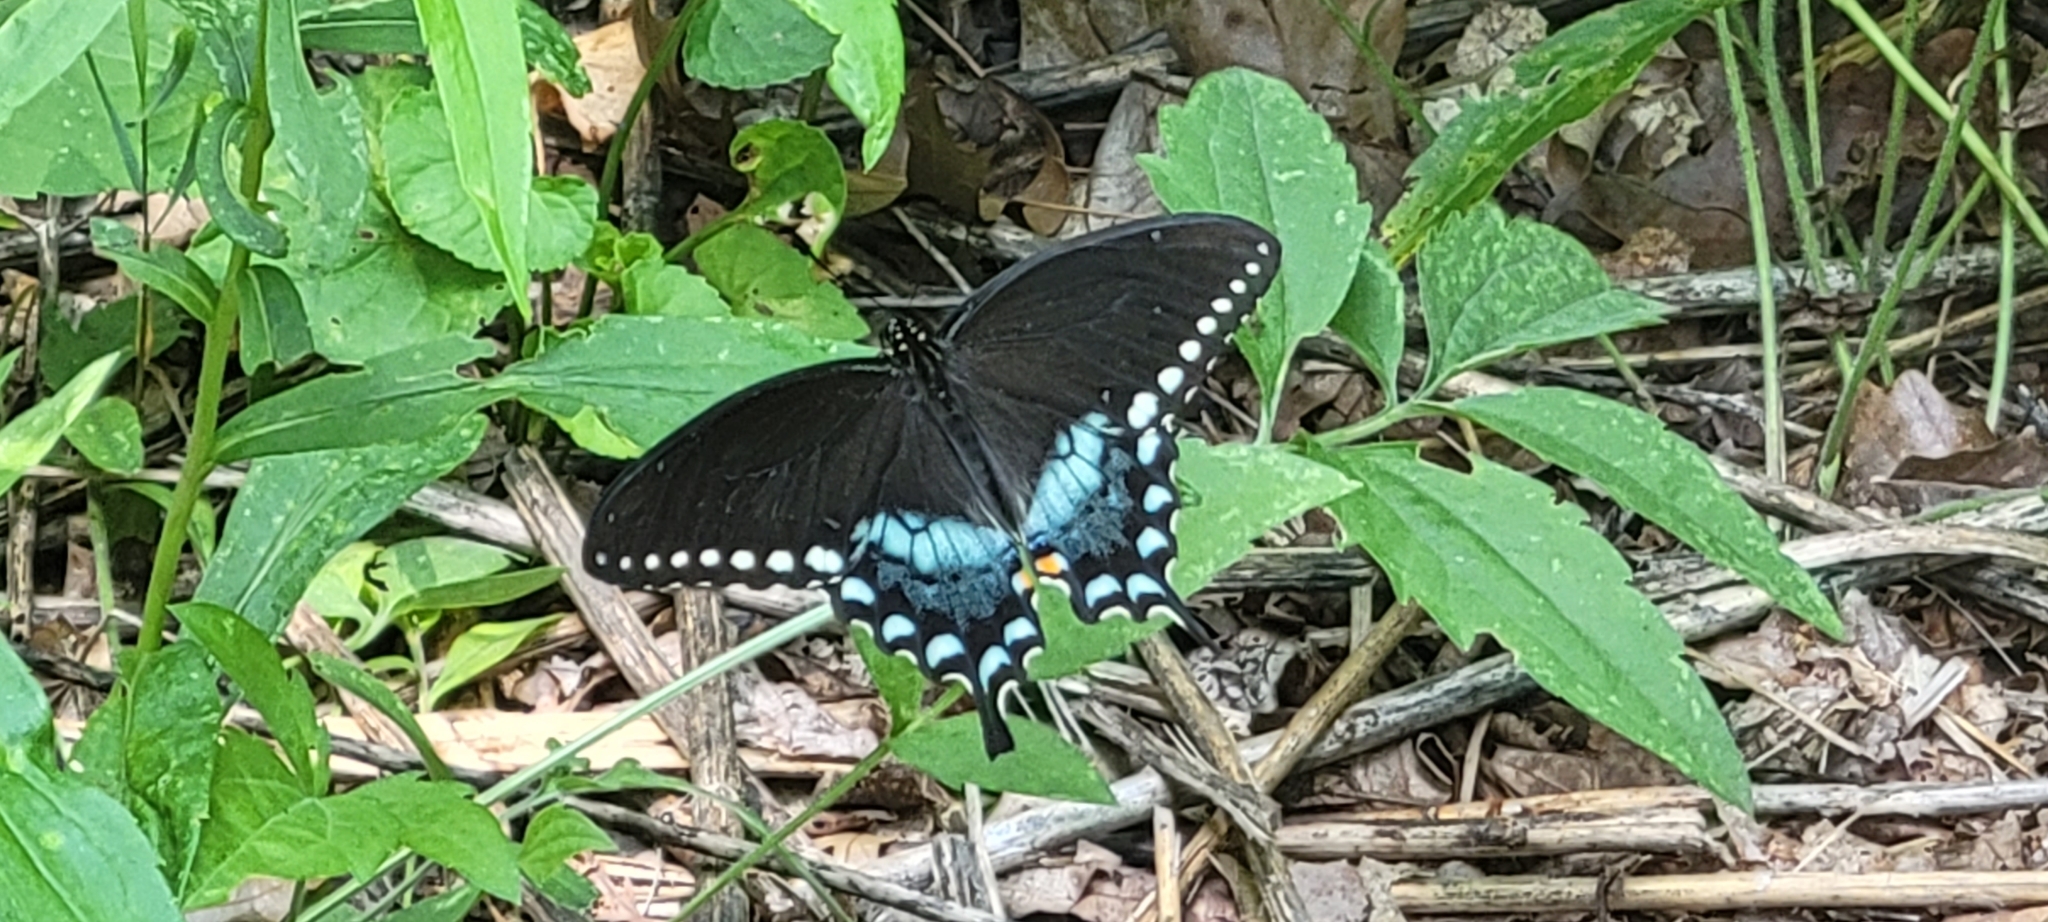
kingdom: Animalia
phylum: Arthropoda
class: Insecta
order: Lepidoptera
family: Papilionidae
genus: Papilio
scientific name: Papilio troilus
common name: Spicebush swallowtail
